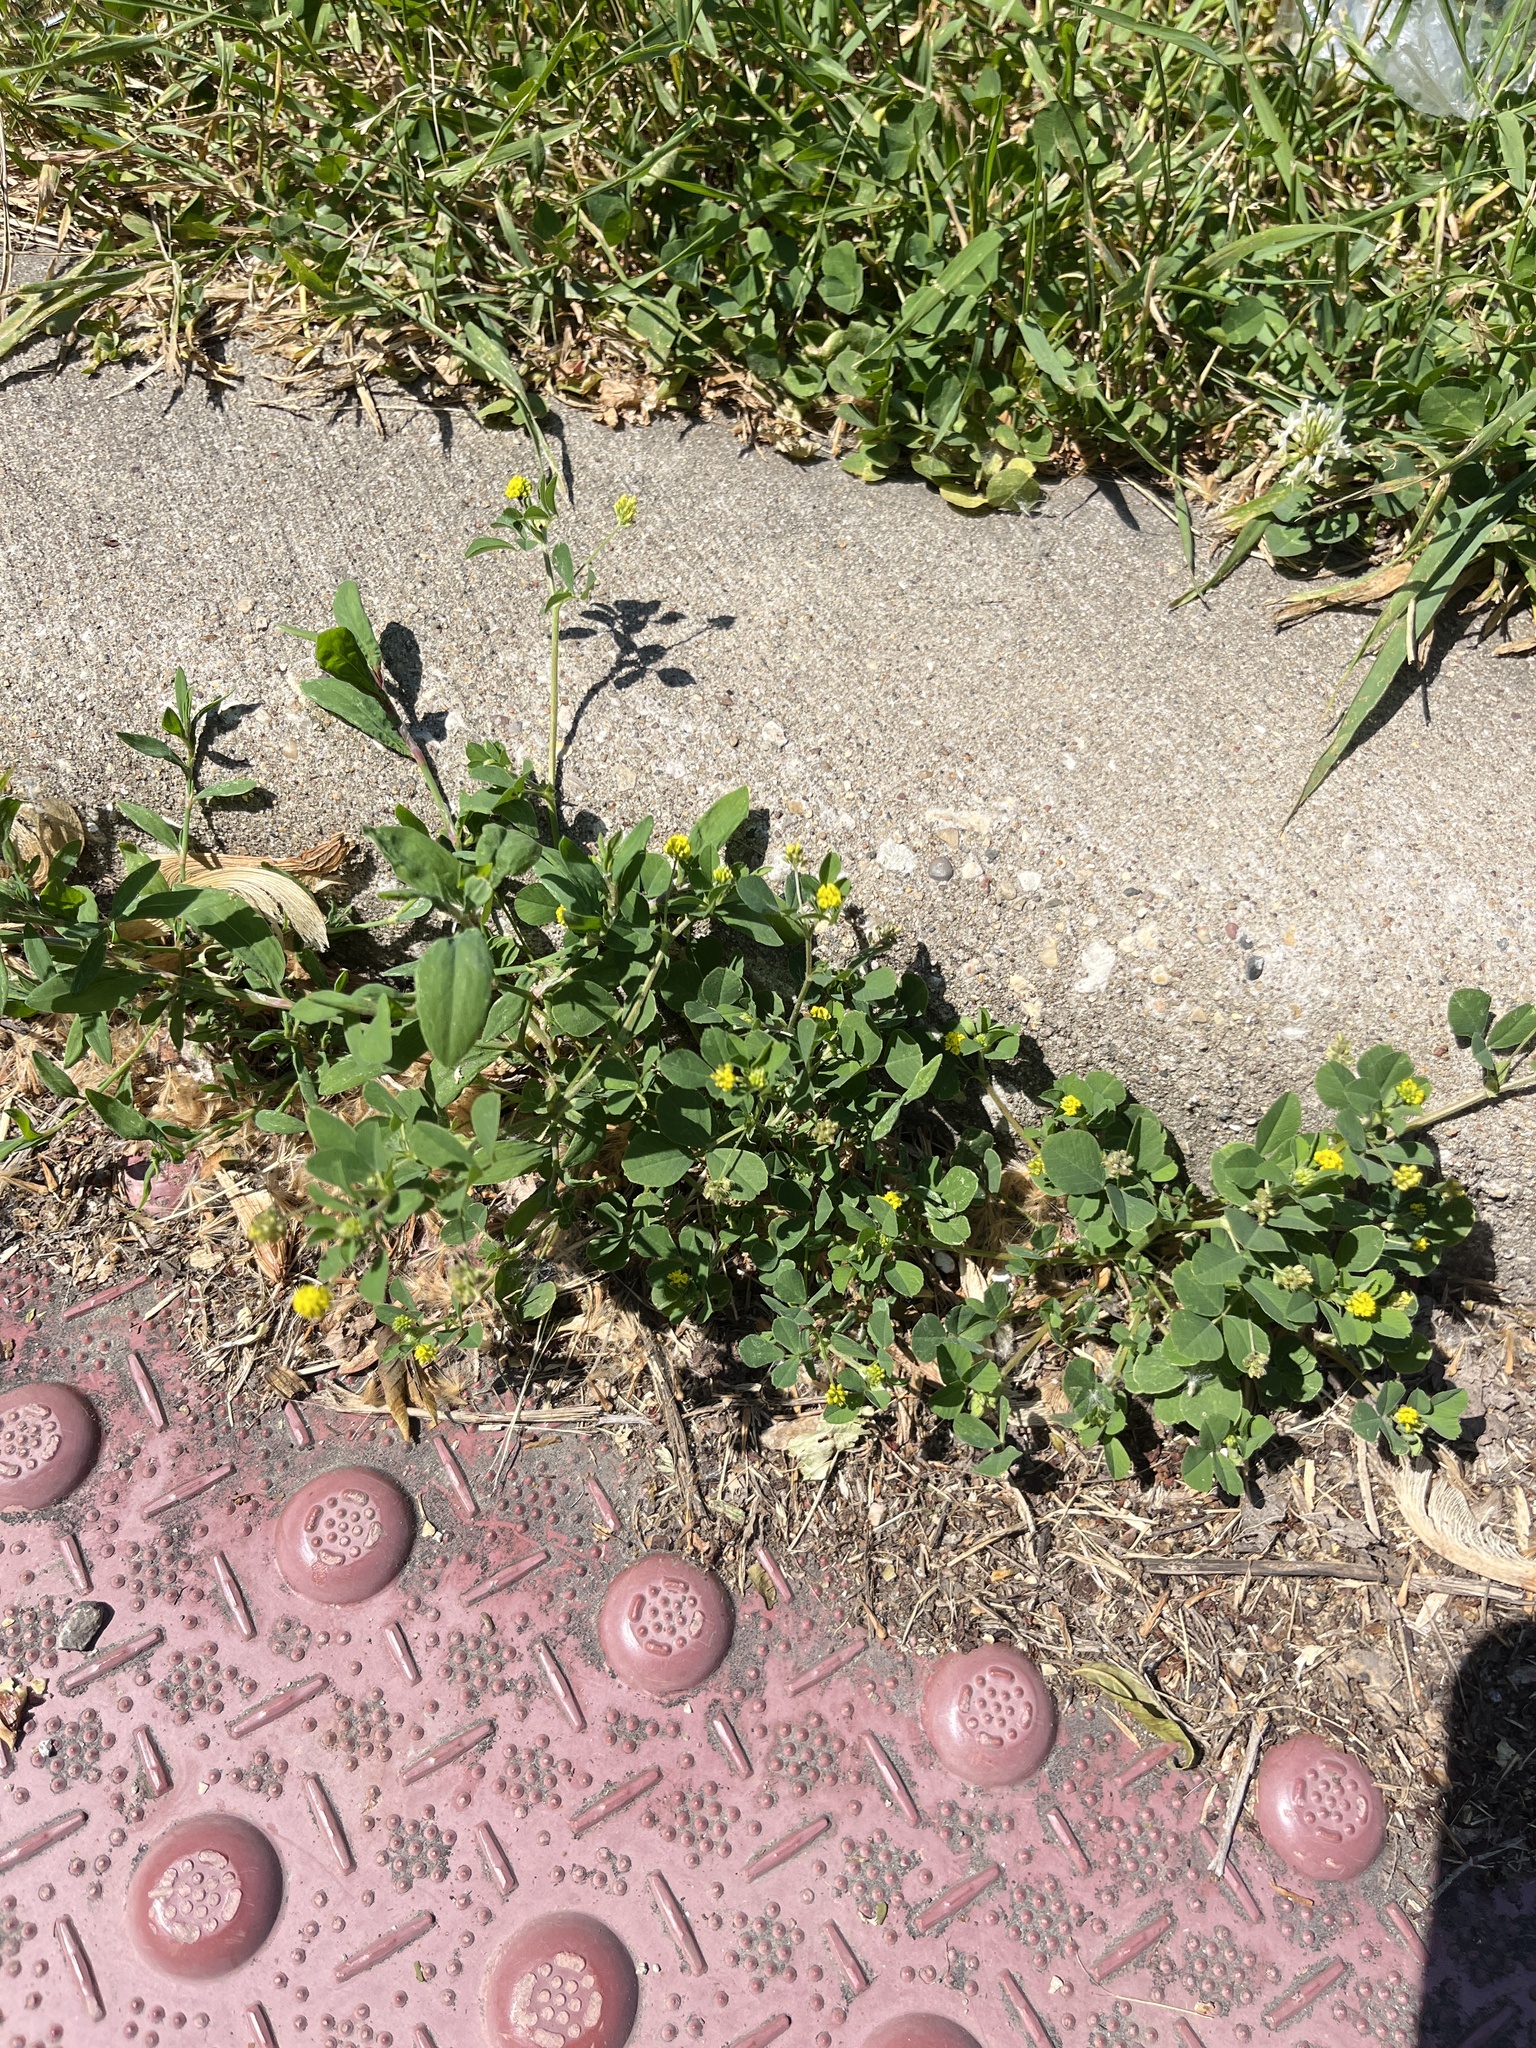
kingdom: Plantae
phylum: Tracheophyta
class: Magnoliopsida
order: Fabales
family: Fabaceae
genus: Medicago
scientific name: Medicago lupulina
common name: Black medick
